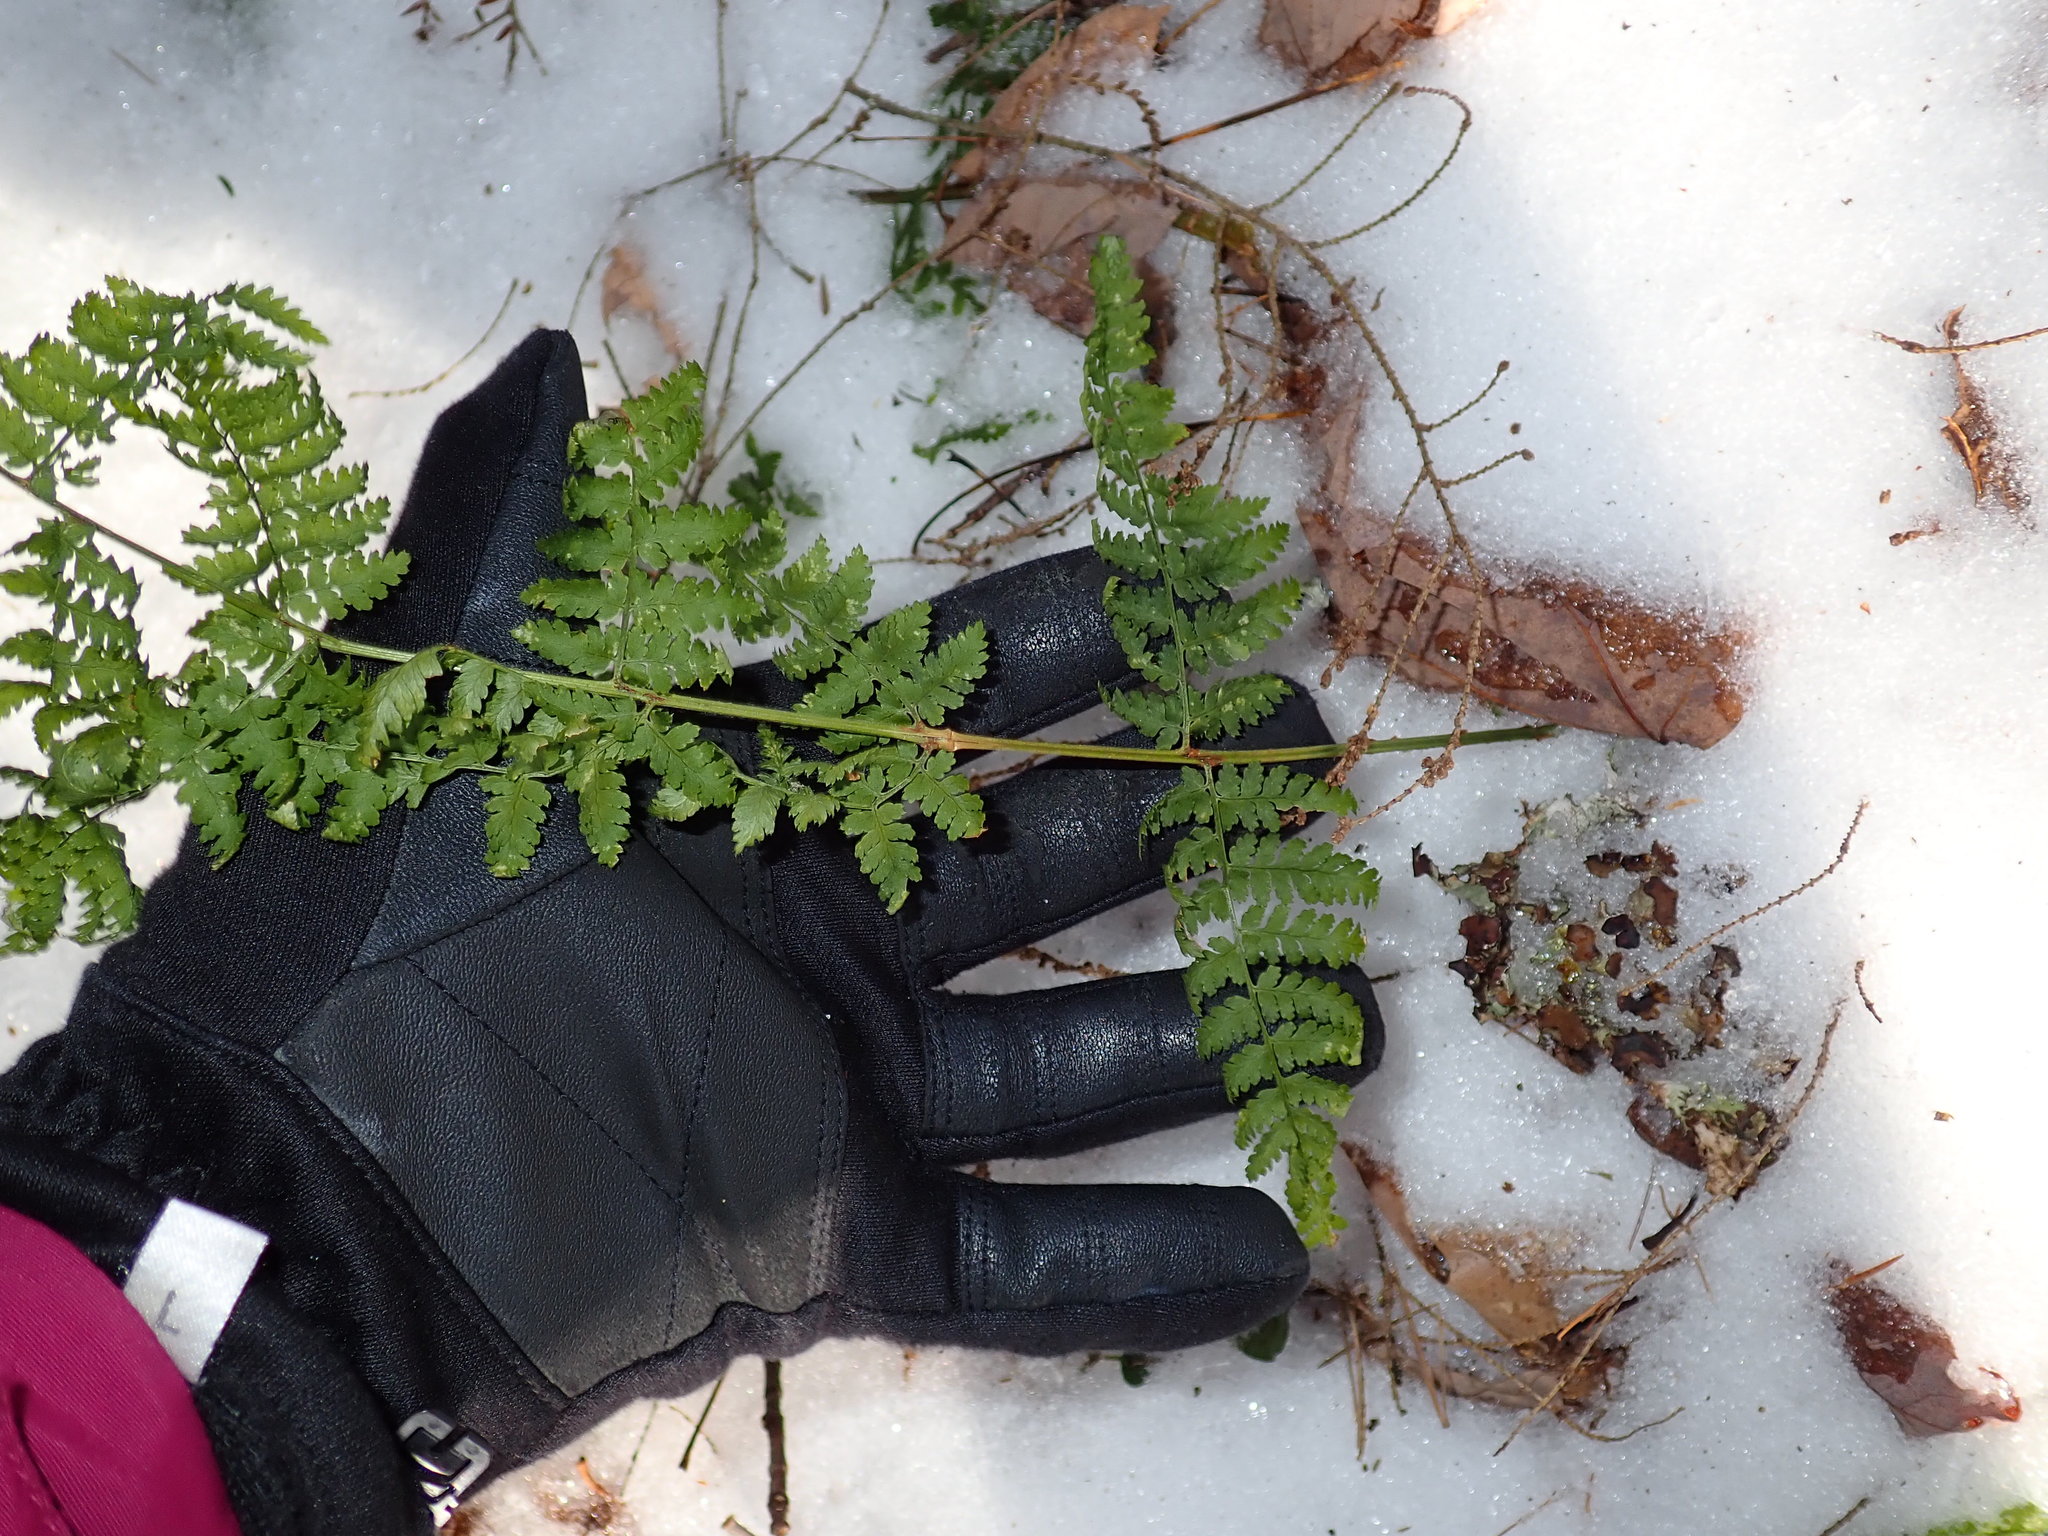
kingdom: Plantae
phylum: Tracheophyta
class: Polypodiopsida
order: Polypodiales
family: Dryopteridaceae
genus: Dryopteris
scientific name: Dryopteris intermedia
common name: Evergreen wood fern
